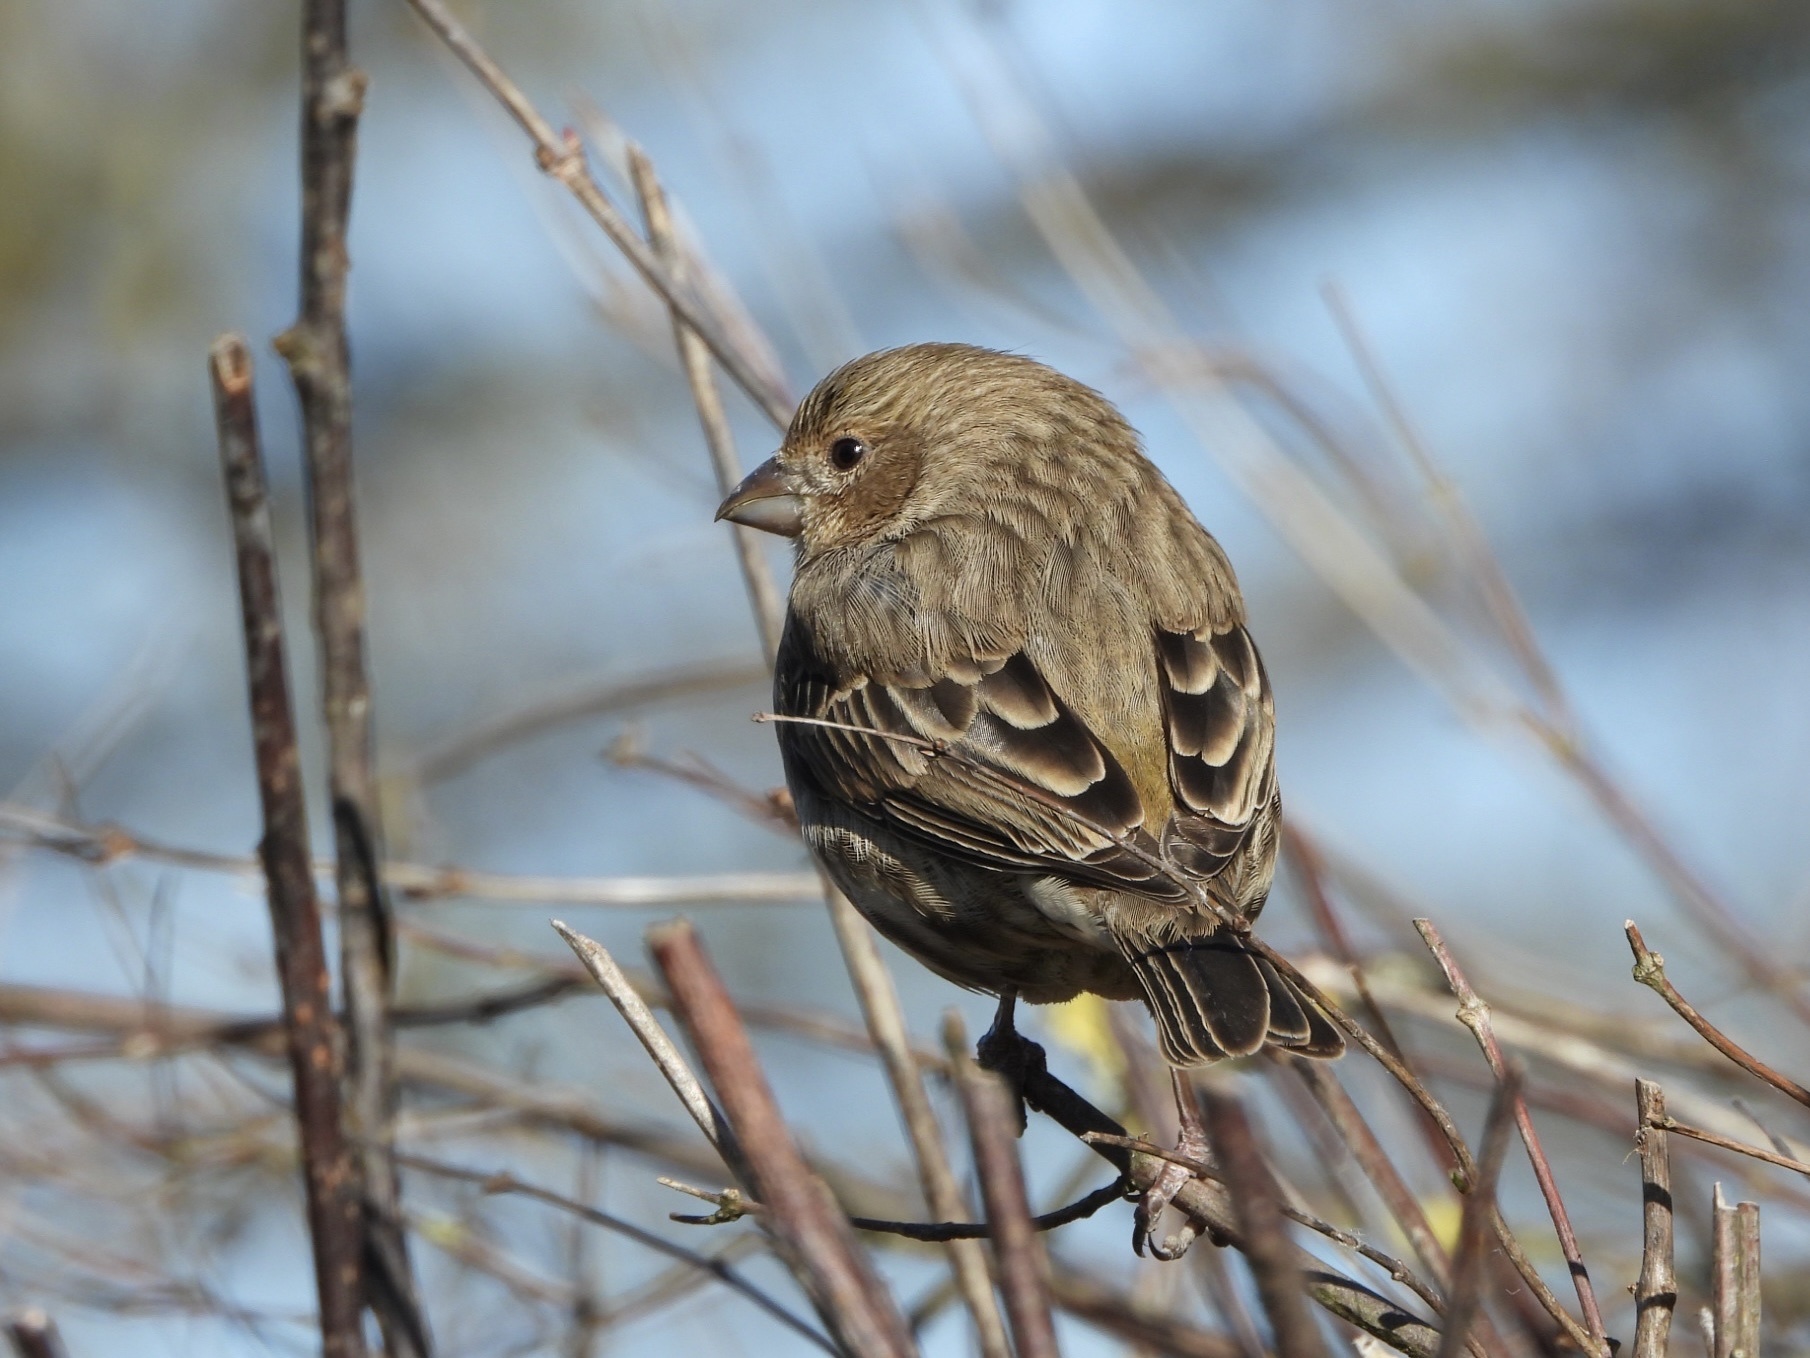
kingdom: Animalia
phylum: Chordata
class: Aves
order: Passeriformes
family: Fringillidae
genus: Haemorhous
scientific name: Haemorhous mexicanus
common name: House finch
